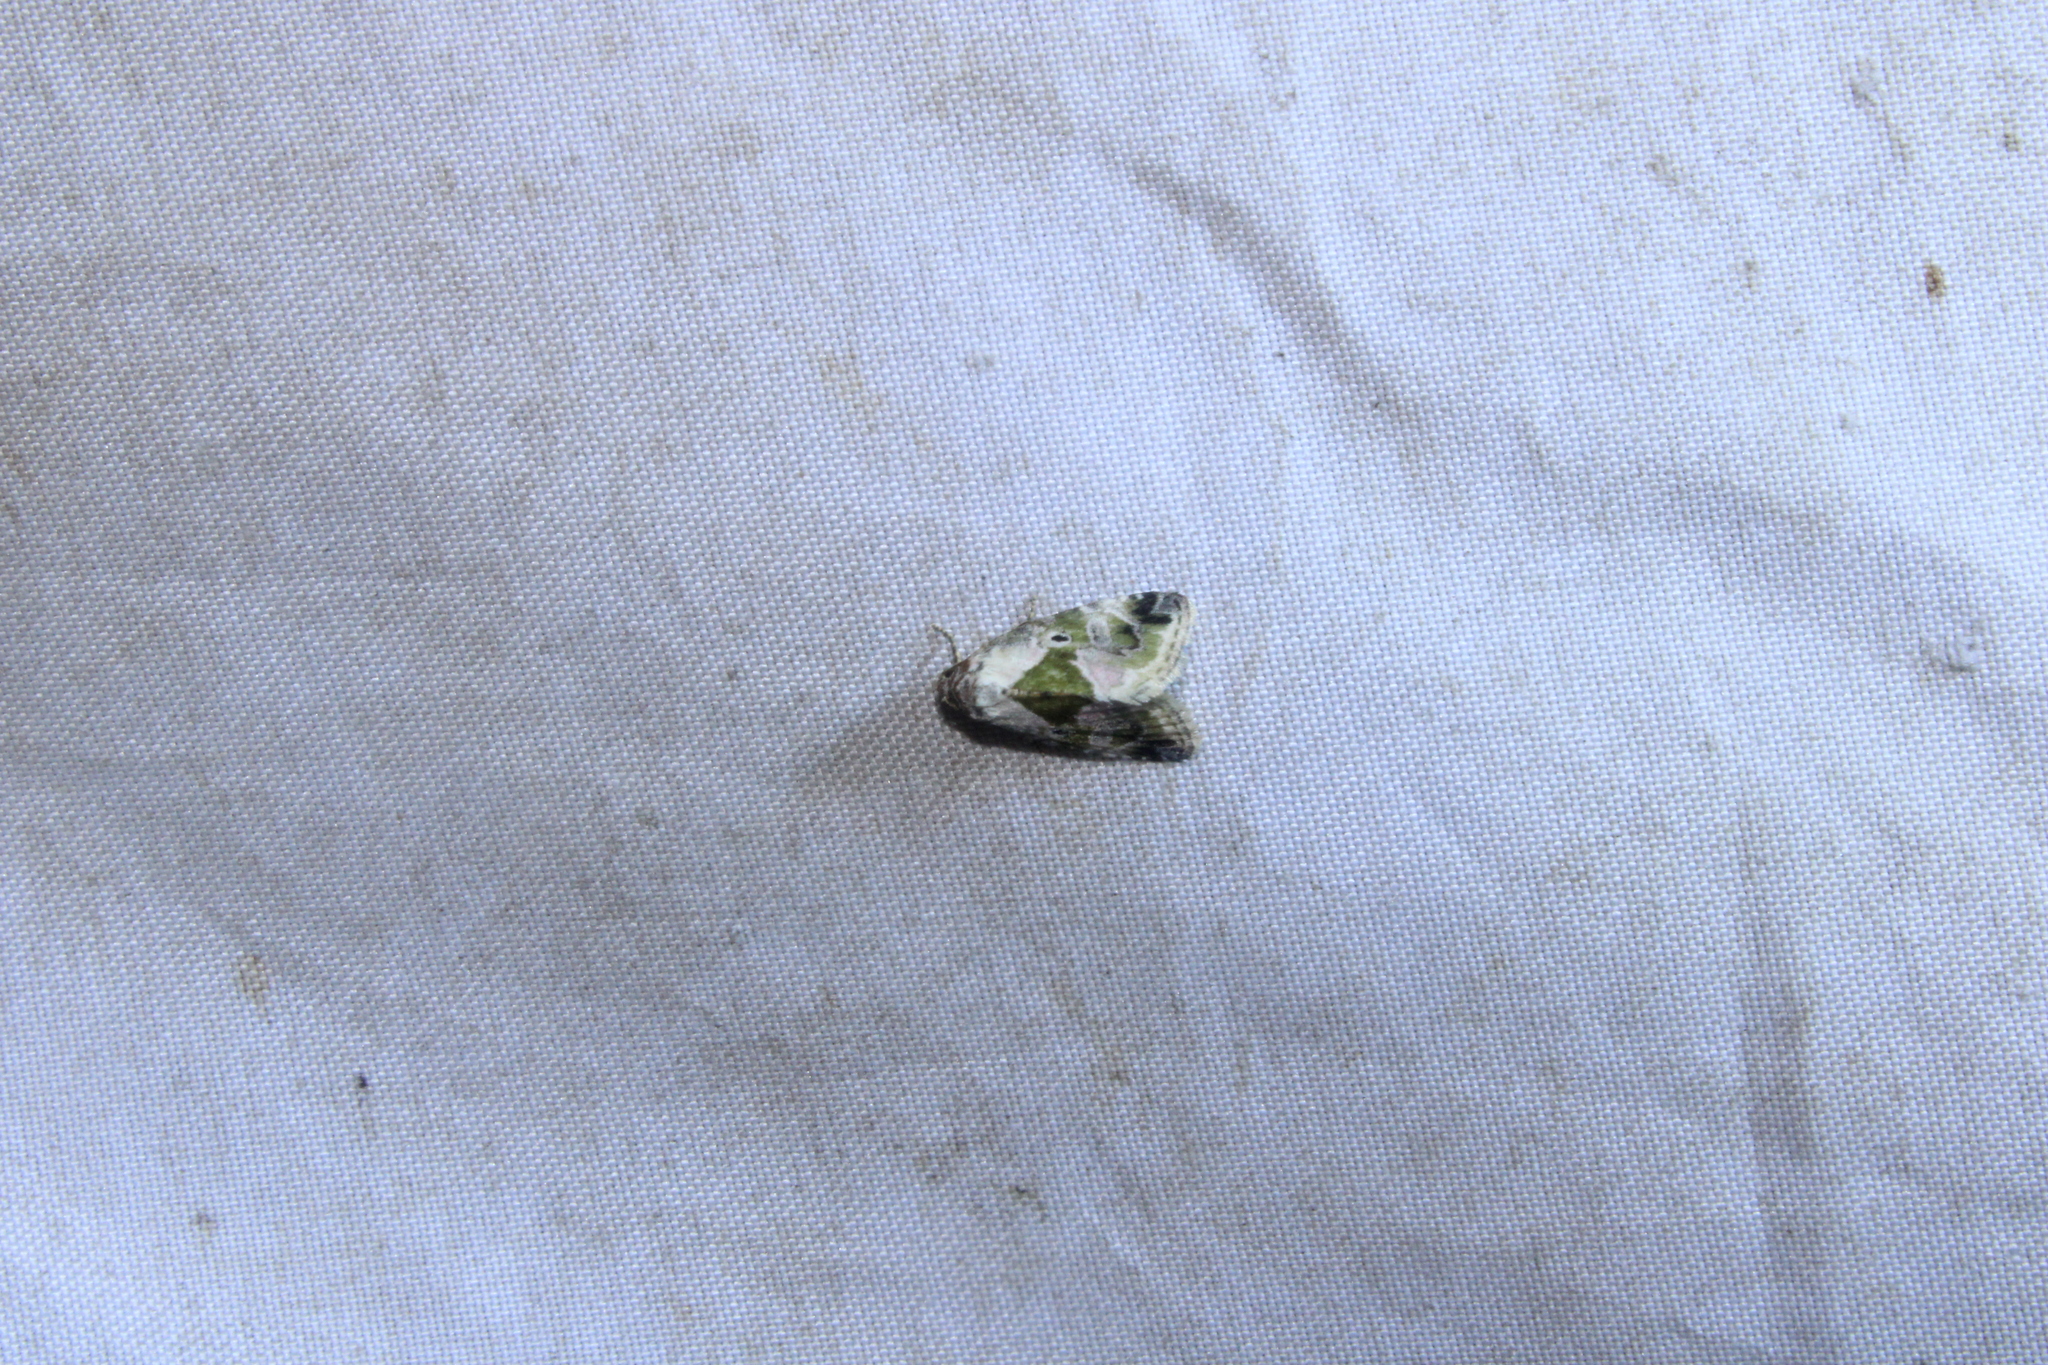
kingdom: Animalia
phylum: Arthropoda
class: Insecta
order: Lepidoptera
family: Noctuidae
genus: Maliattha
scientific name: Maliattha synochitis
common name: Black-dotted glyph
